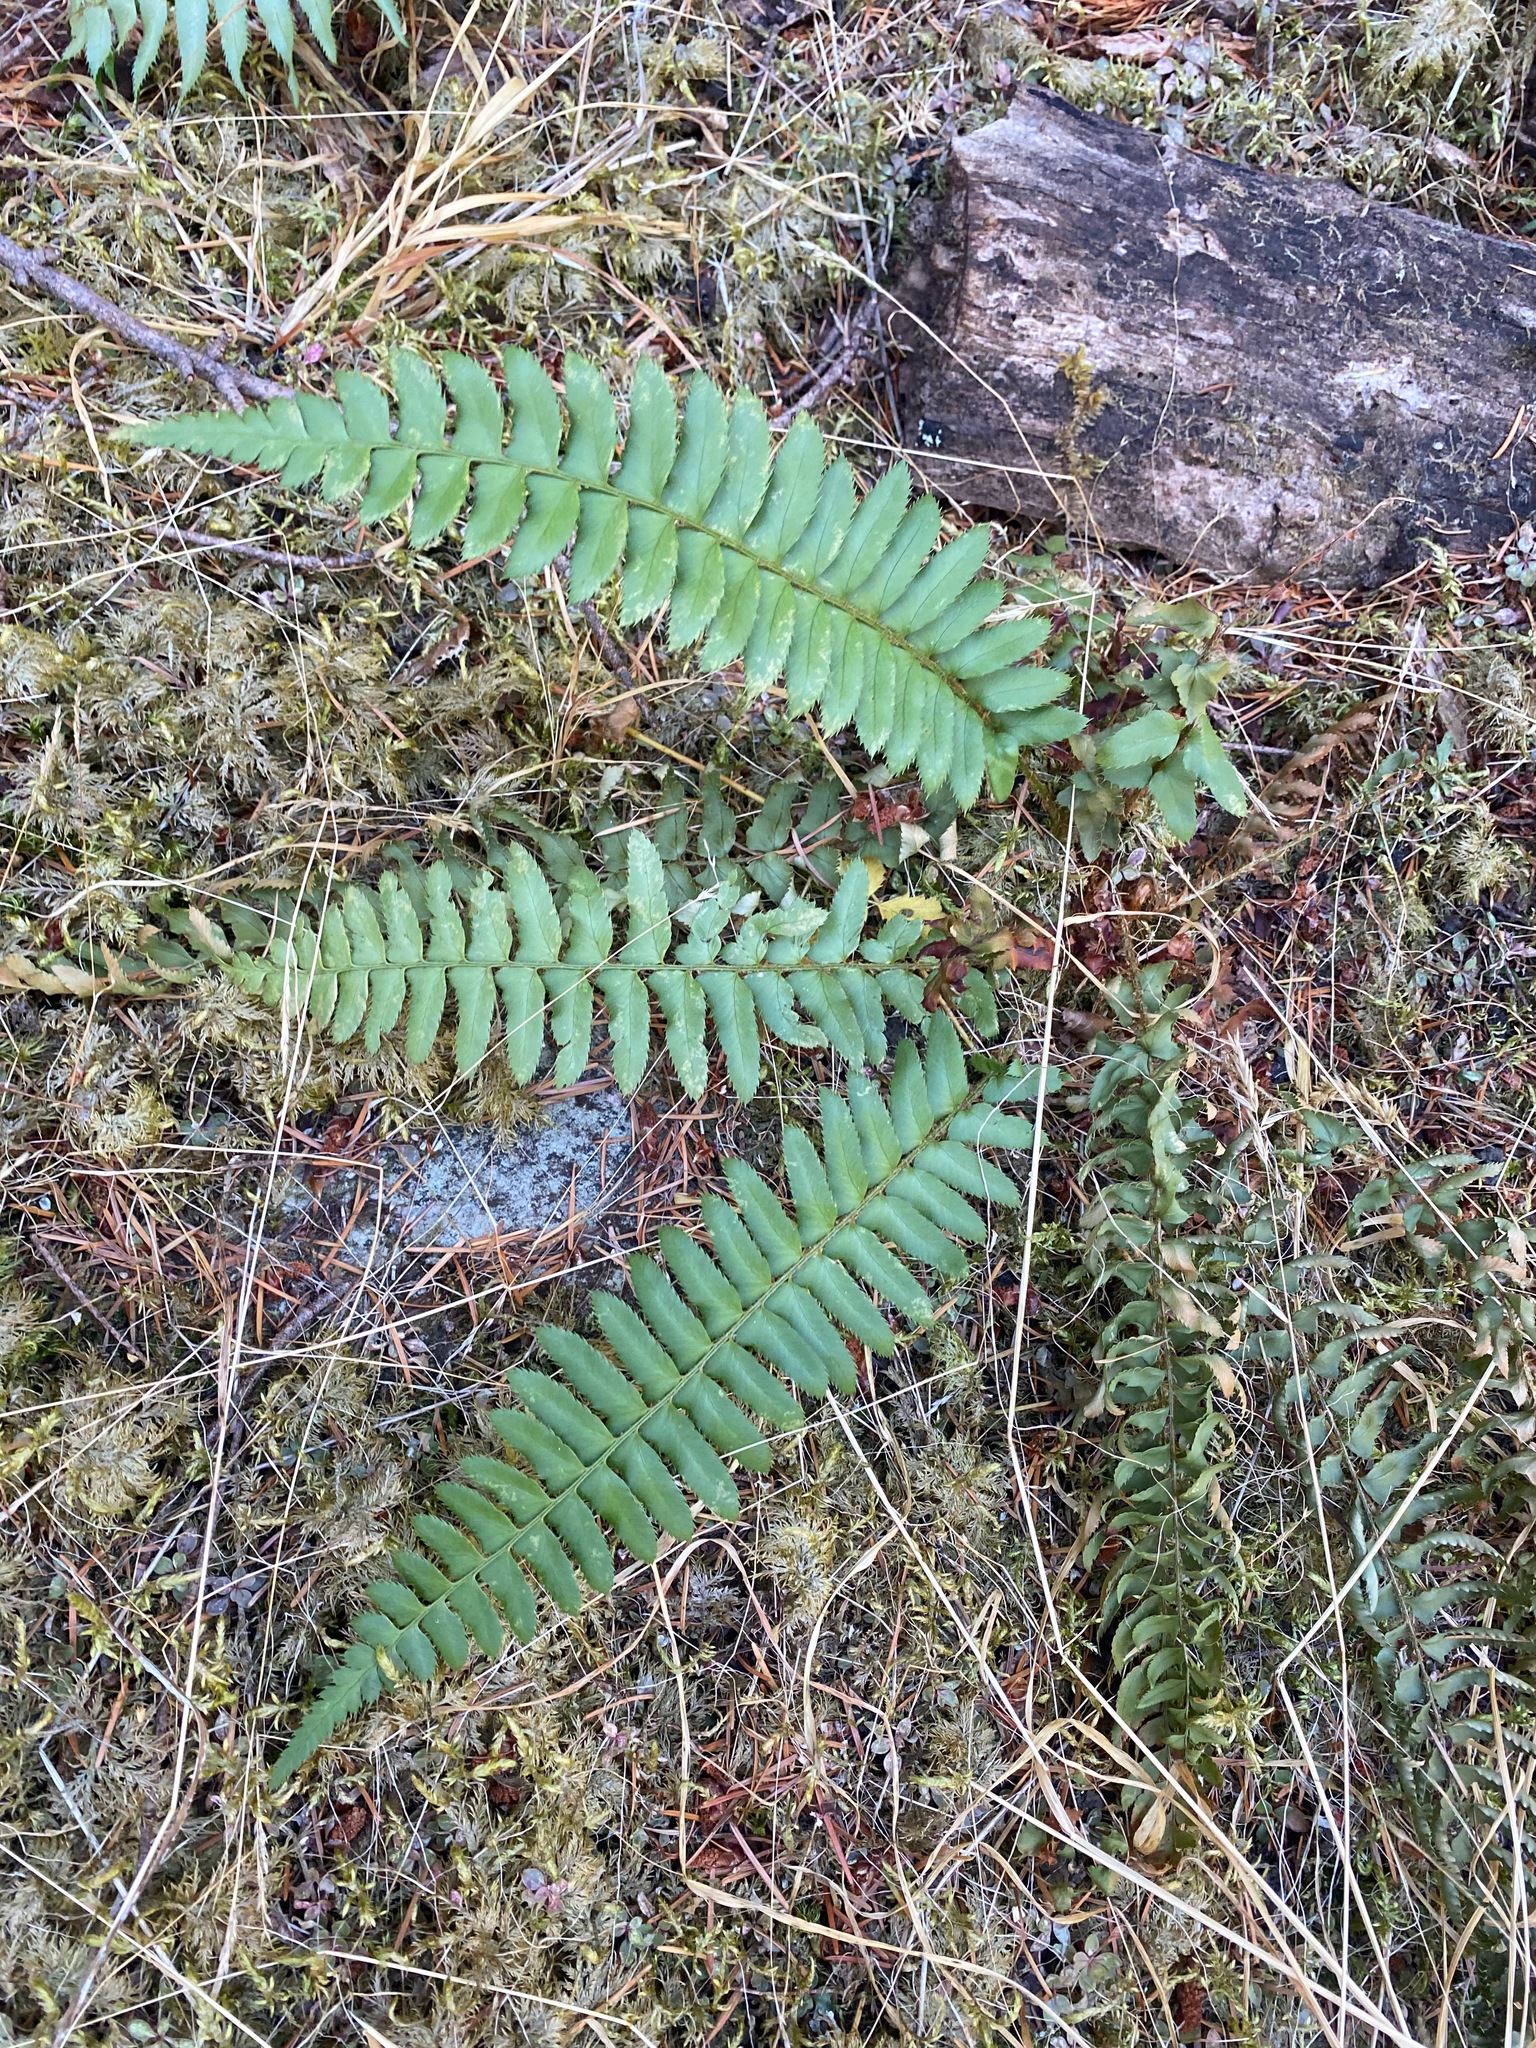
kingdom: Plantae
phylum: Tracheophyta
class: Polypodiopsida
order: Polypodiales
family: Dryopteridaceae
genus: Polystichum
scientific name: Polystichum munitum
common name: Western sword-fern
